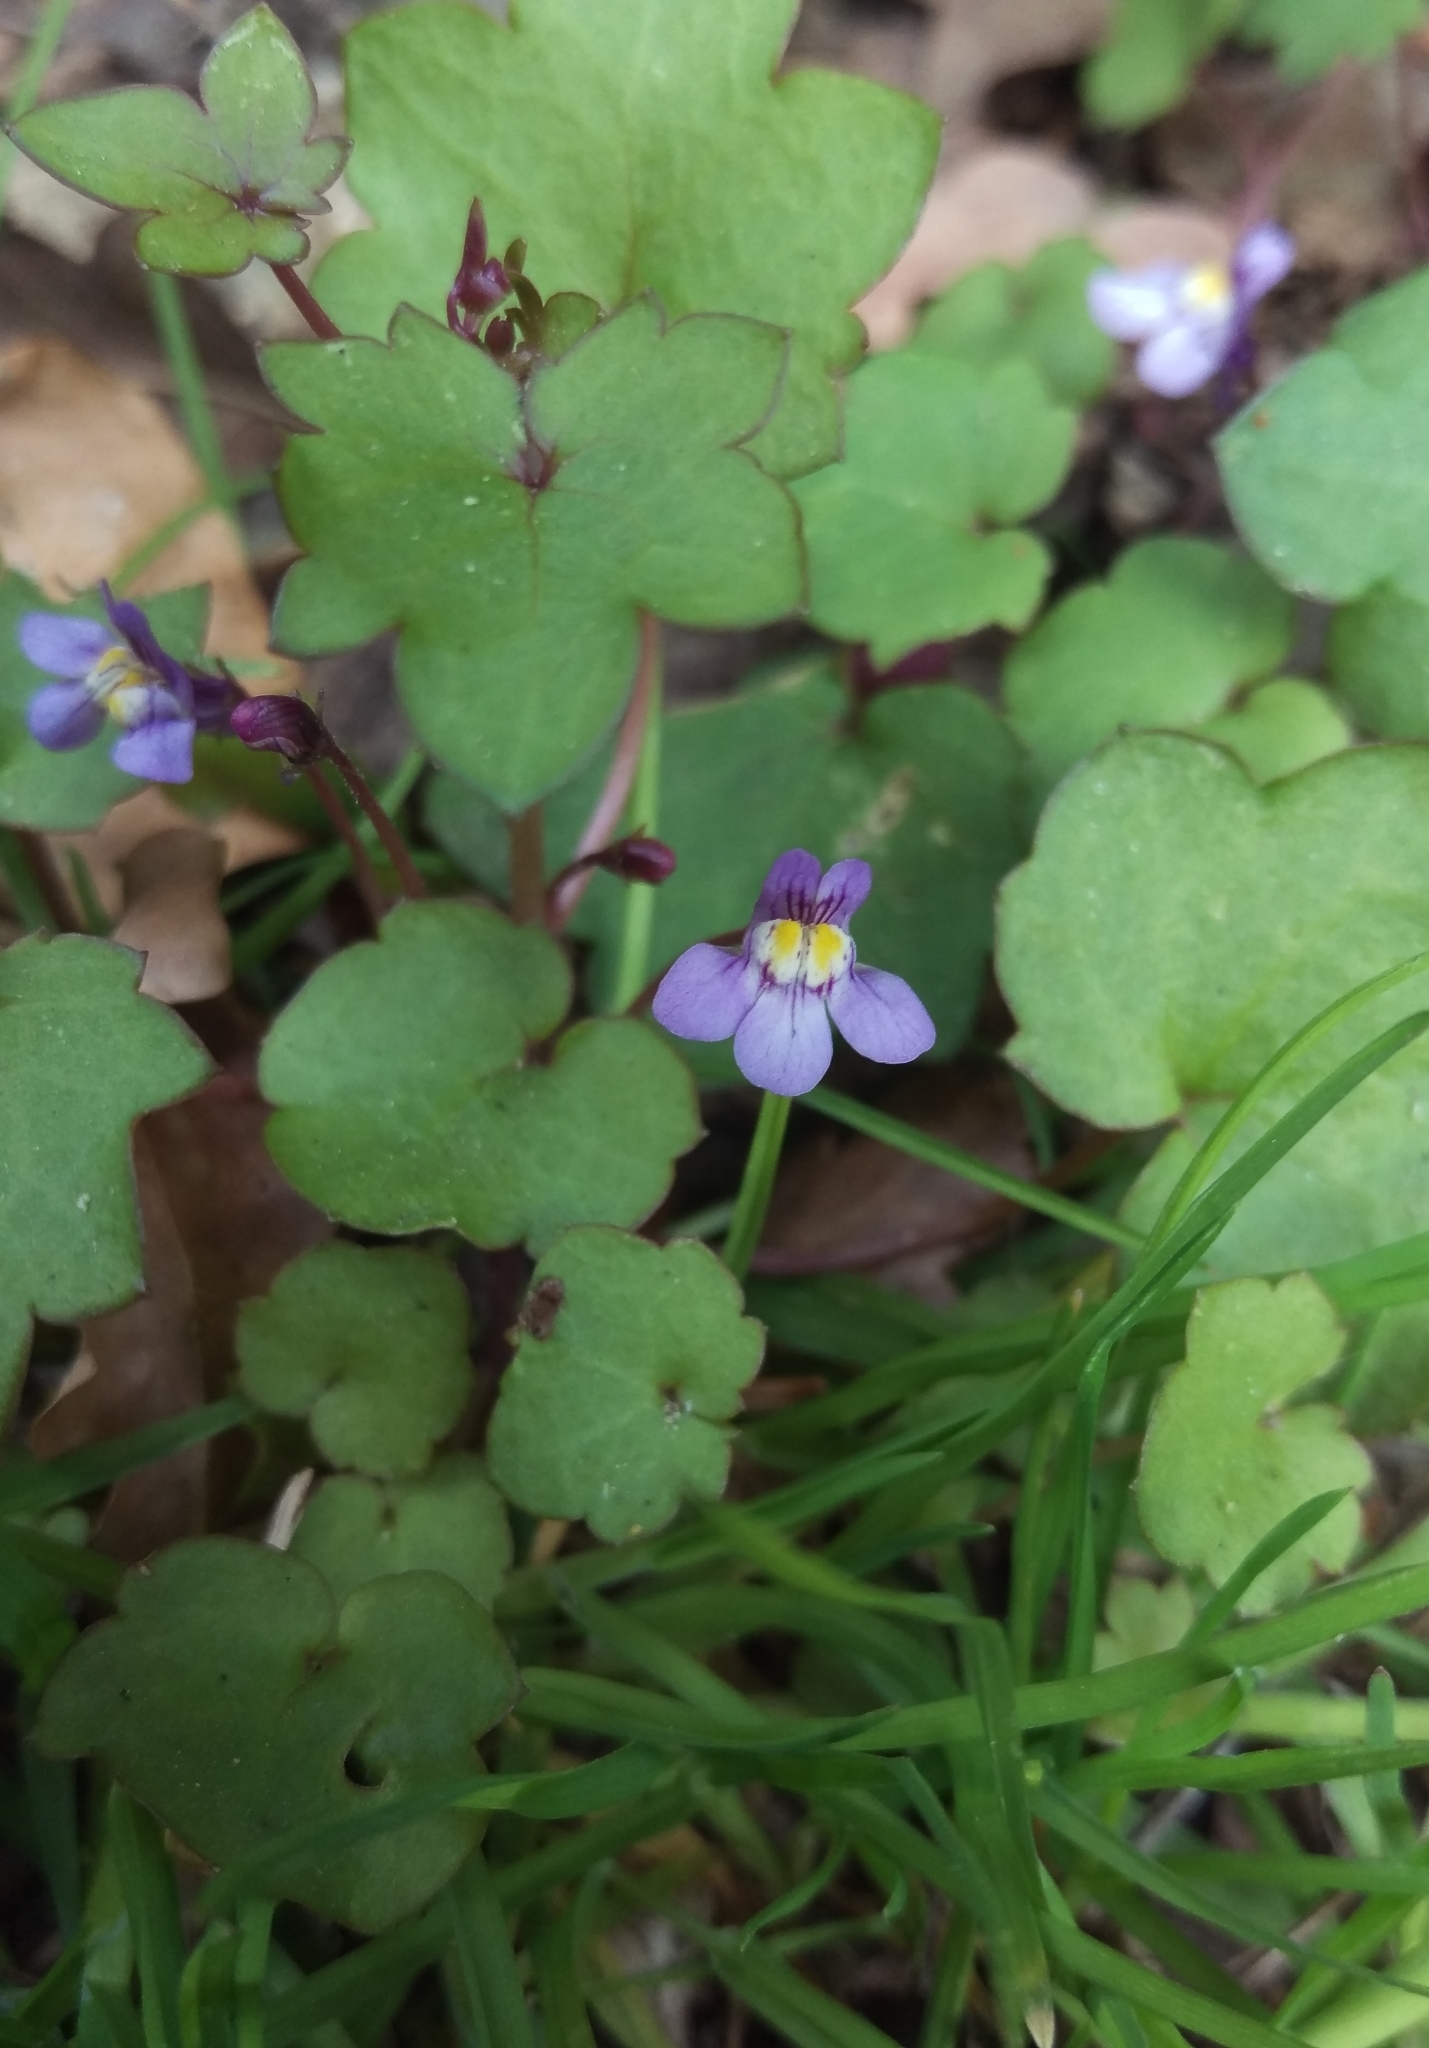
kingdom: Plantae
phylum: Tracheophyta
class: Magnoliopsida
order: Lamiales
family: Plantaginaceae
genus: Cymbalaria
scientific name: Cymbalaria muralis
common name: Ivy-leaved toadflax
